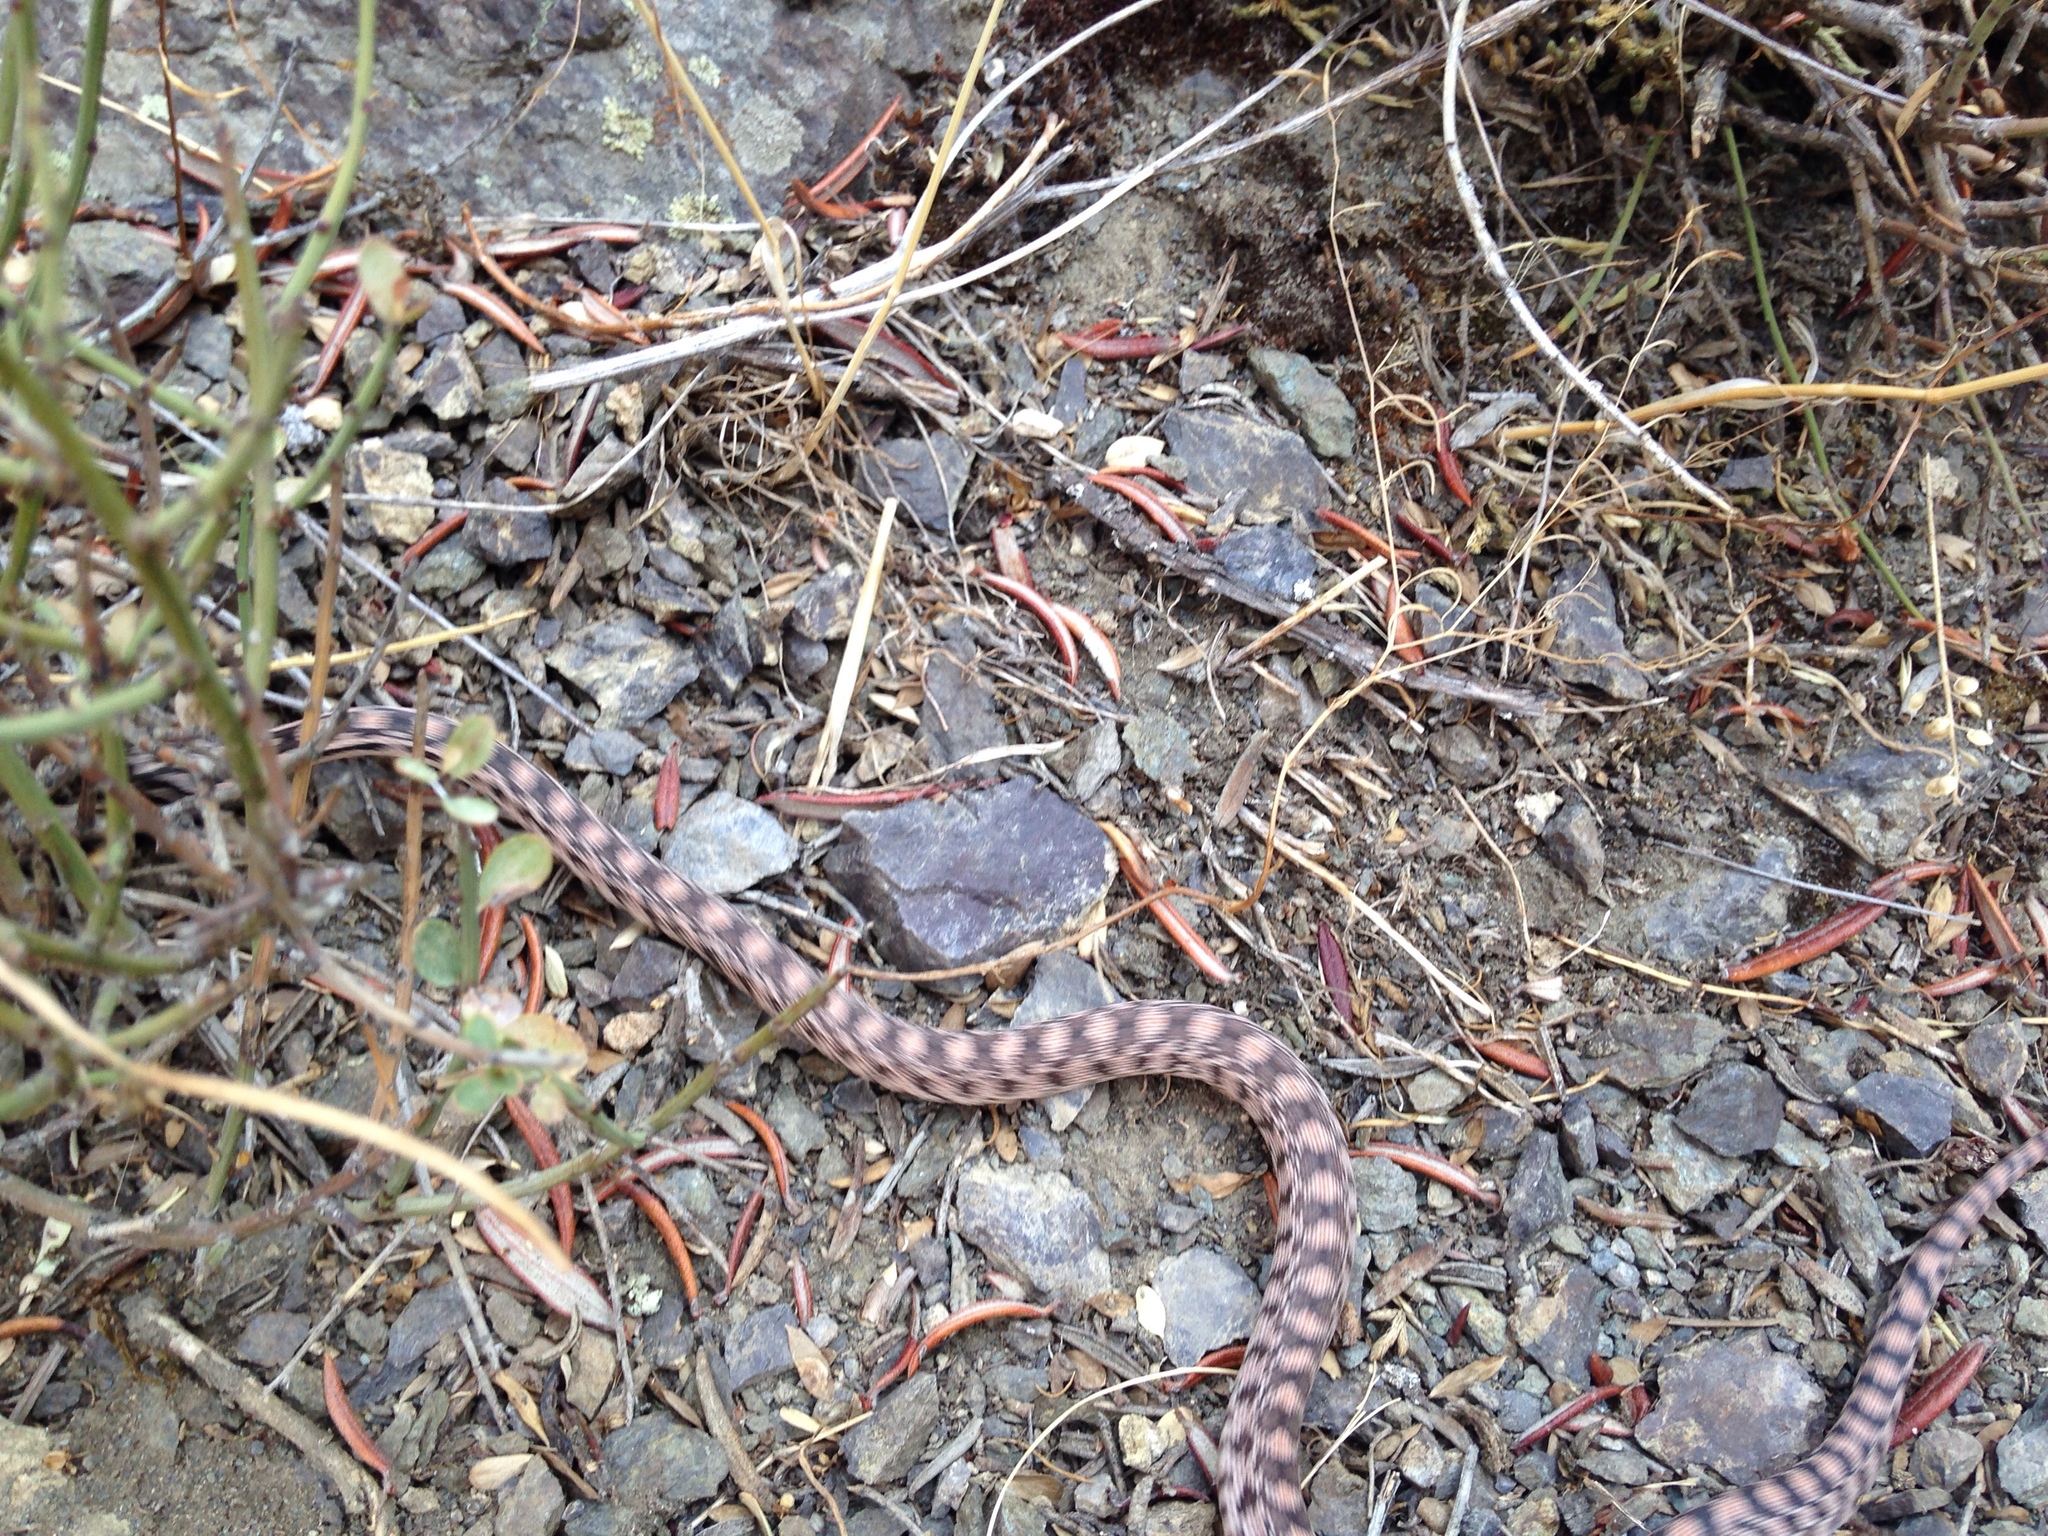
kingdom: Animalia
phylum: Chordata
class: Squamata
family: Colubridae
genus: Pituophis
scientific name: Pituophis catenifer
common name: Gopher snake
